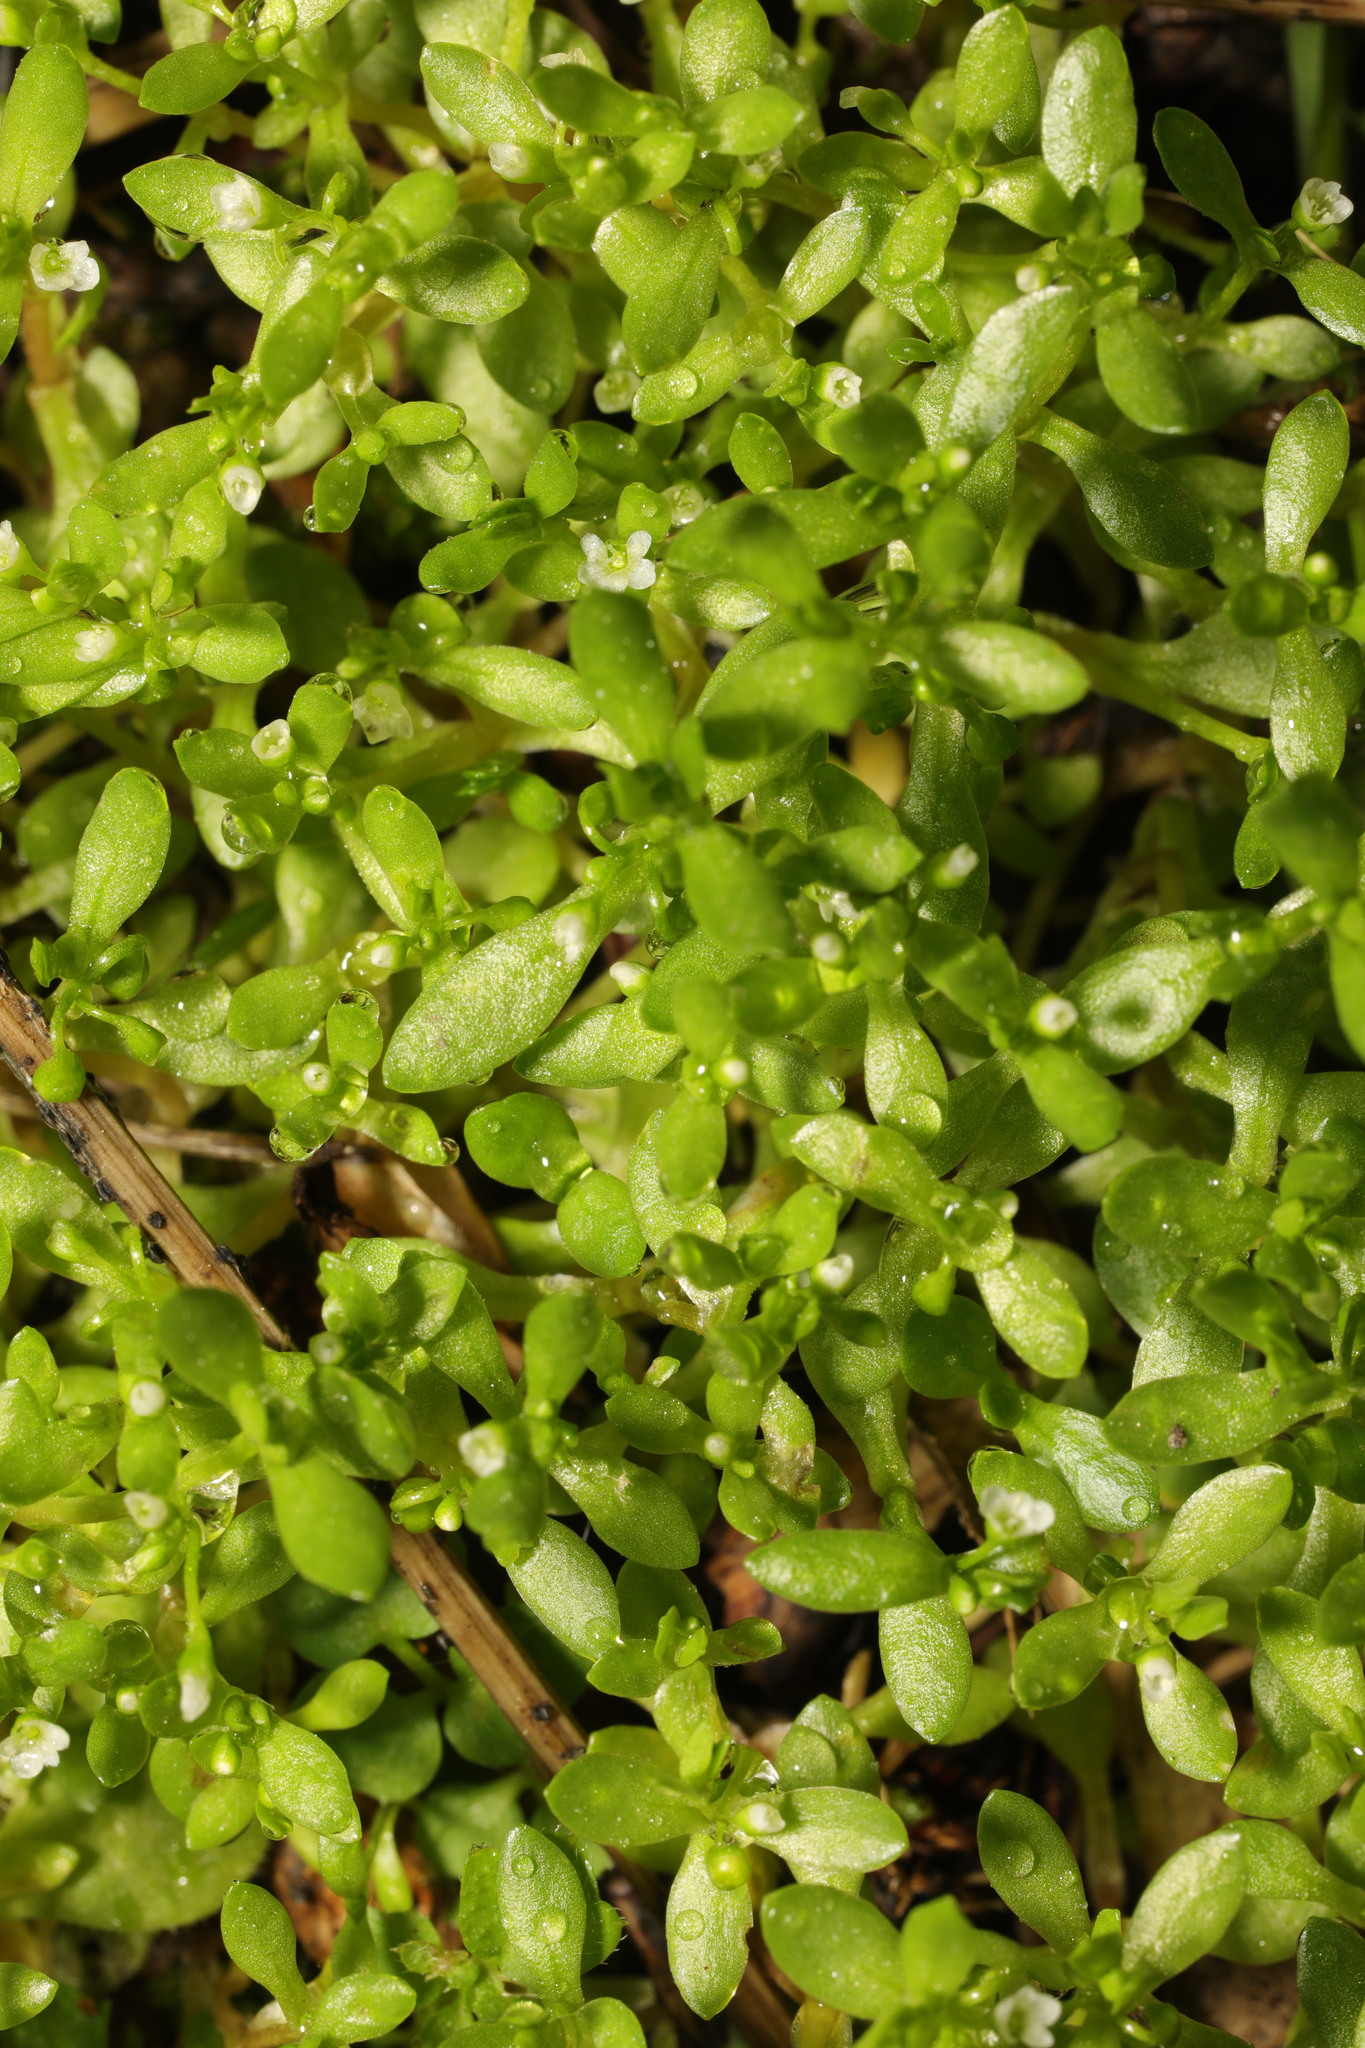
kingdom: Plantae
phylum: Tracheophyta
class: Magnoliopsida
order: Caryophyllales
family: Montiaceae
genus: Montia
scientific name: Montia fontana
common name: Blinks
